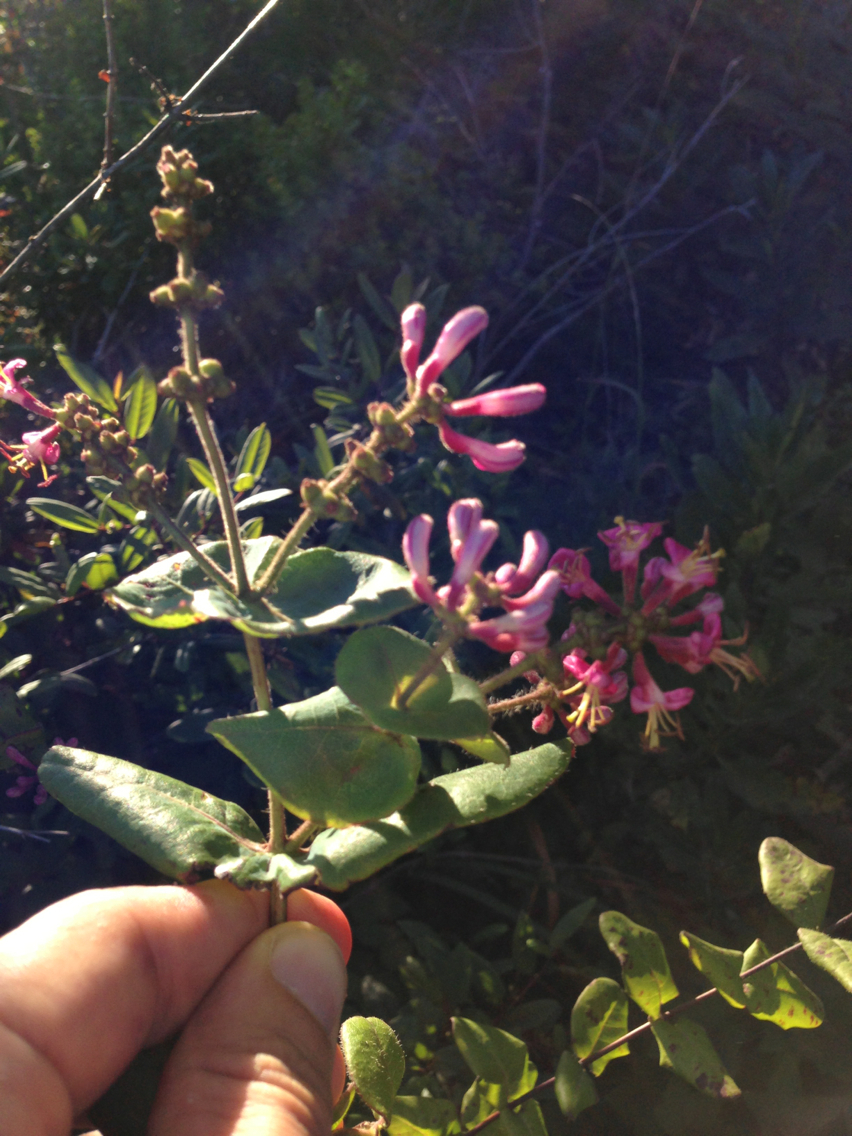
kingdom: Plantae
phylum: Tracheophyta
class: Magnoliopsida
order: Dipsacales
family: Caprifoliaceae
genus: Lonicera
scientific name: Lonicera hispidula
